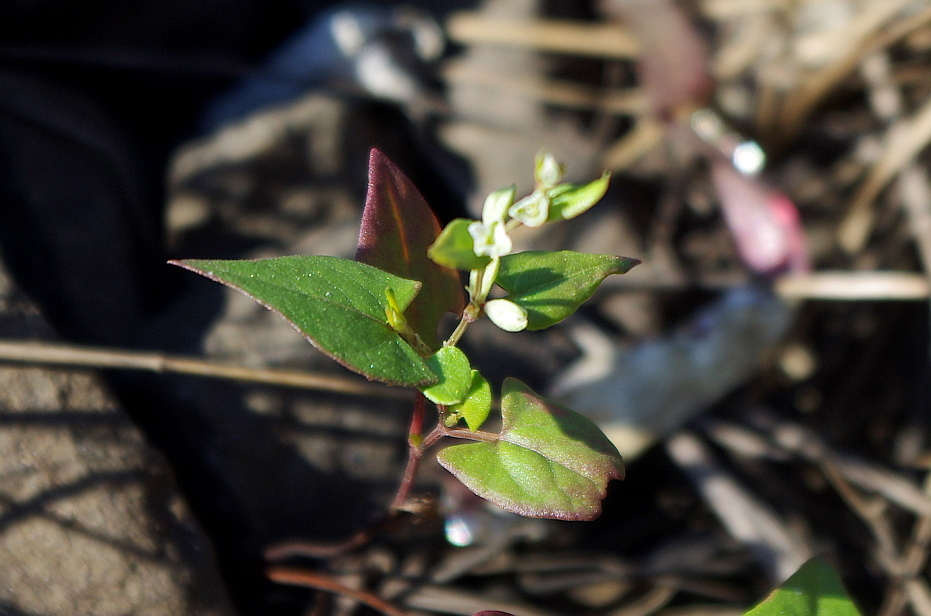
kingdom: Plantae
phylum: Tracheophyta
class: Magnoliopsida
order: Caryophyllales
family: Polygonaceae
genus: Fallopia
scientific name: Fallopia convolvulus
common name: Black bindweed
